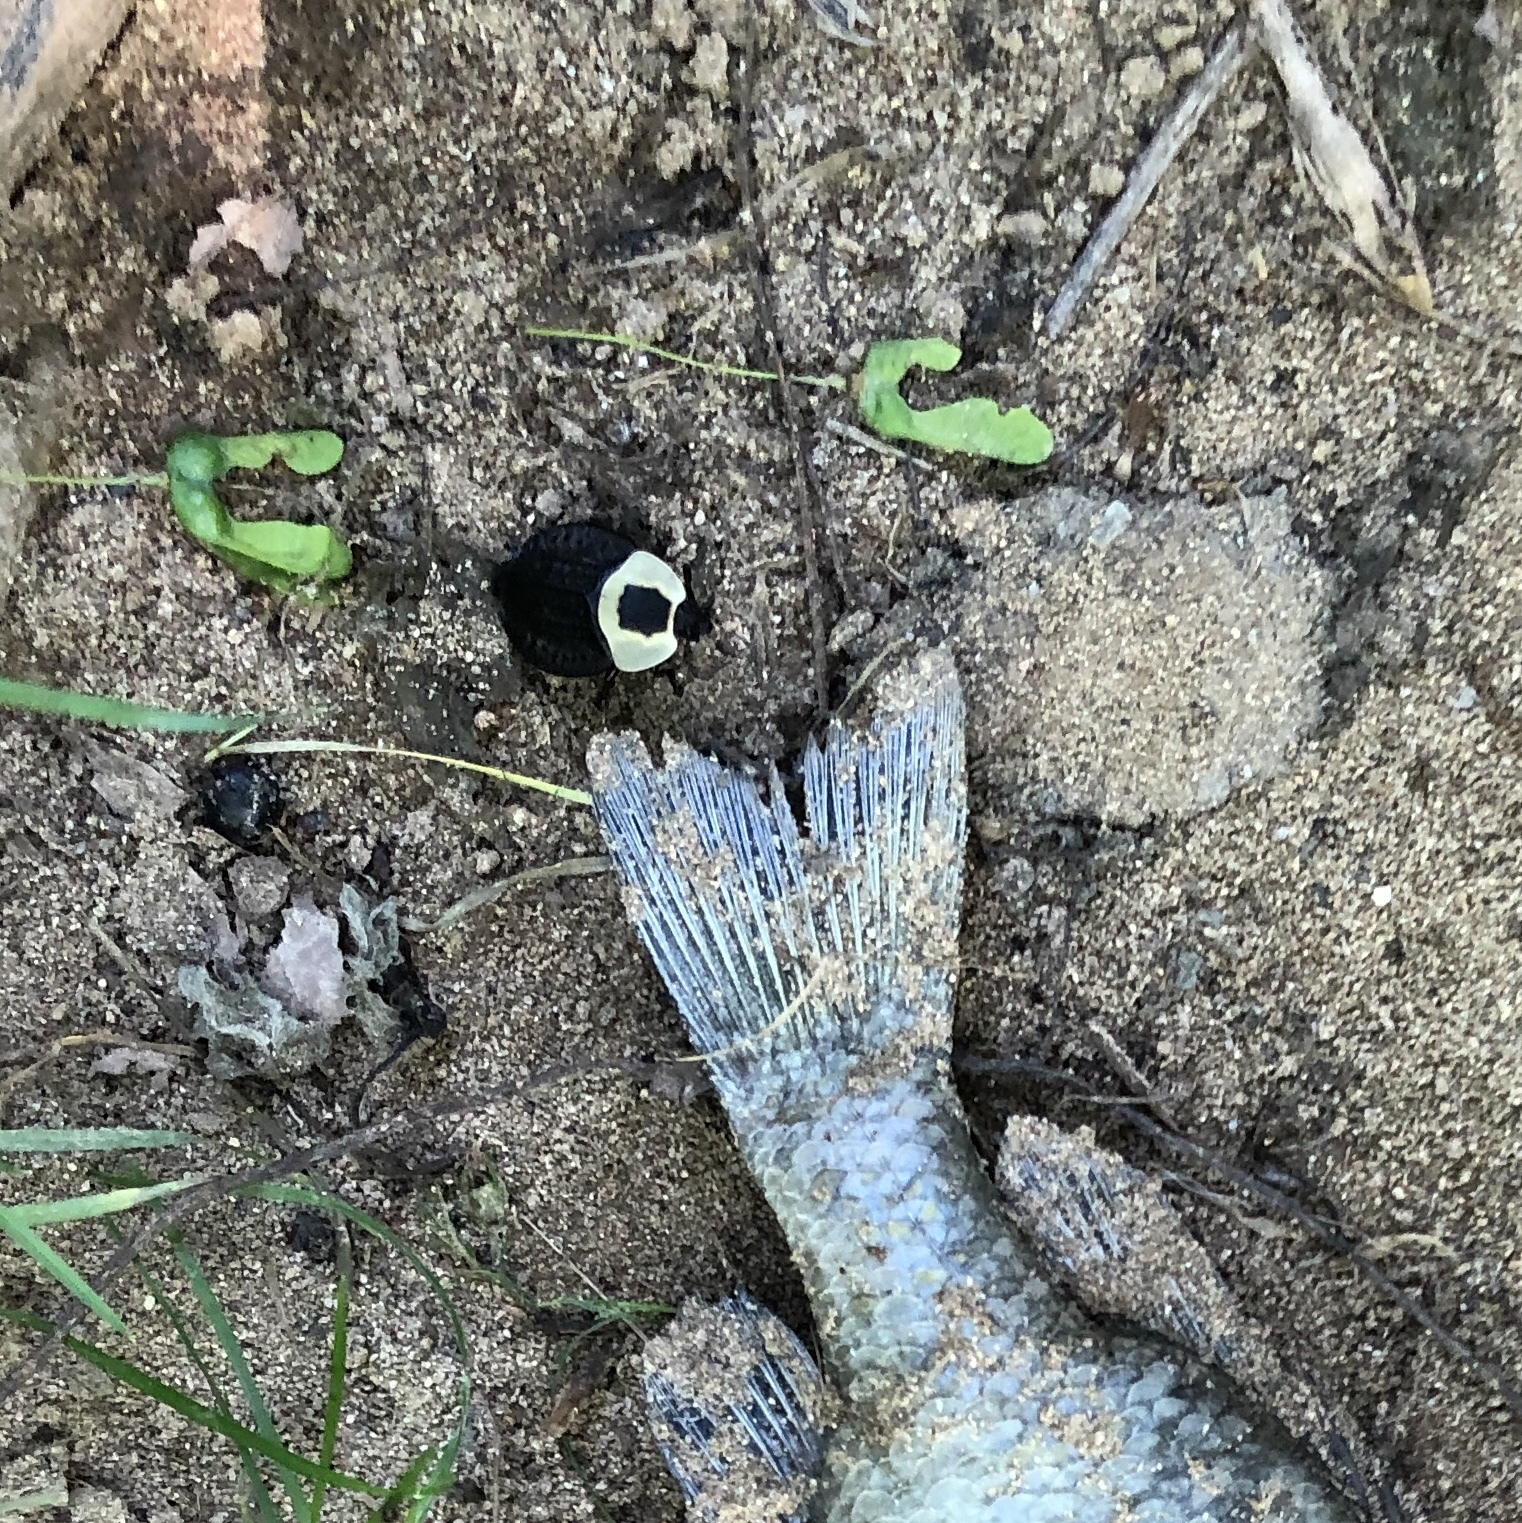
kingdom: Animalia
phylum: Arthropoda
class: Insecta
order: Coleoptera
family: Staphylinidae
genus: Necrophila
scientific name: Necrophila americana
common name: American carrion beetle
